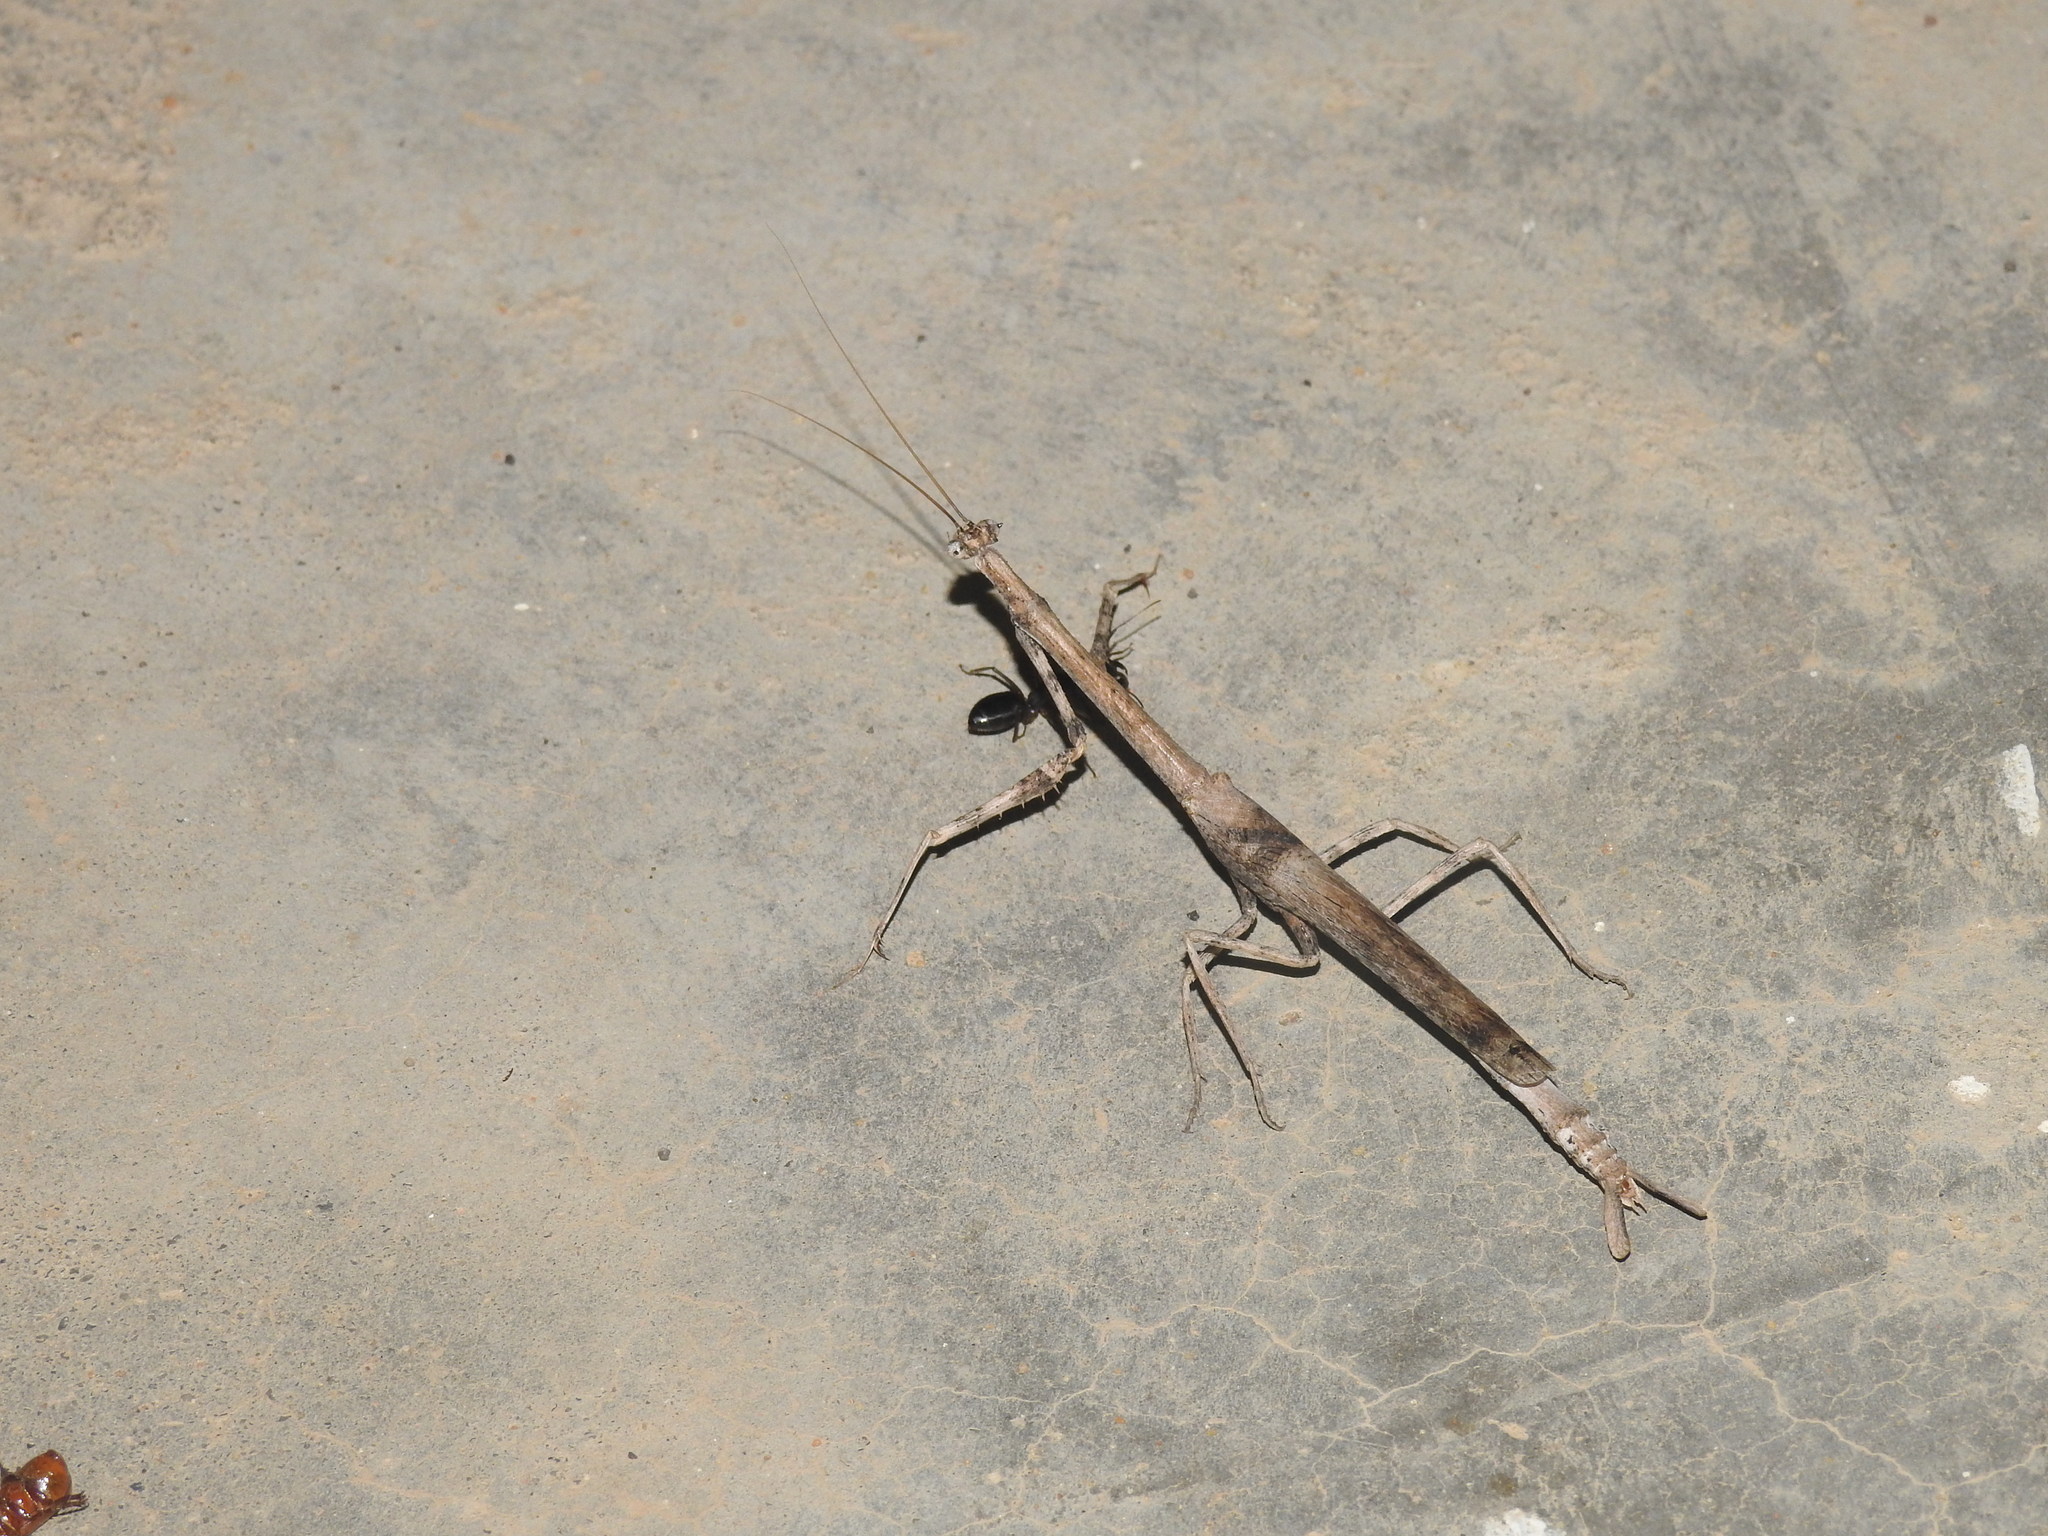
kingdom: Animalia
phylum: Arthropoda
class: Insecta
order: Mantodea
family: Toxoderidae
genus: Aethalochroa
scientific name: Aethalochroa ashmoliana
